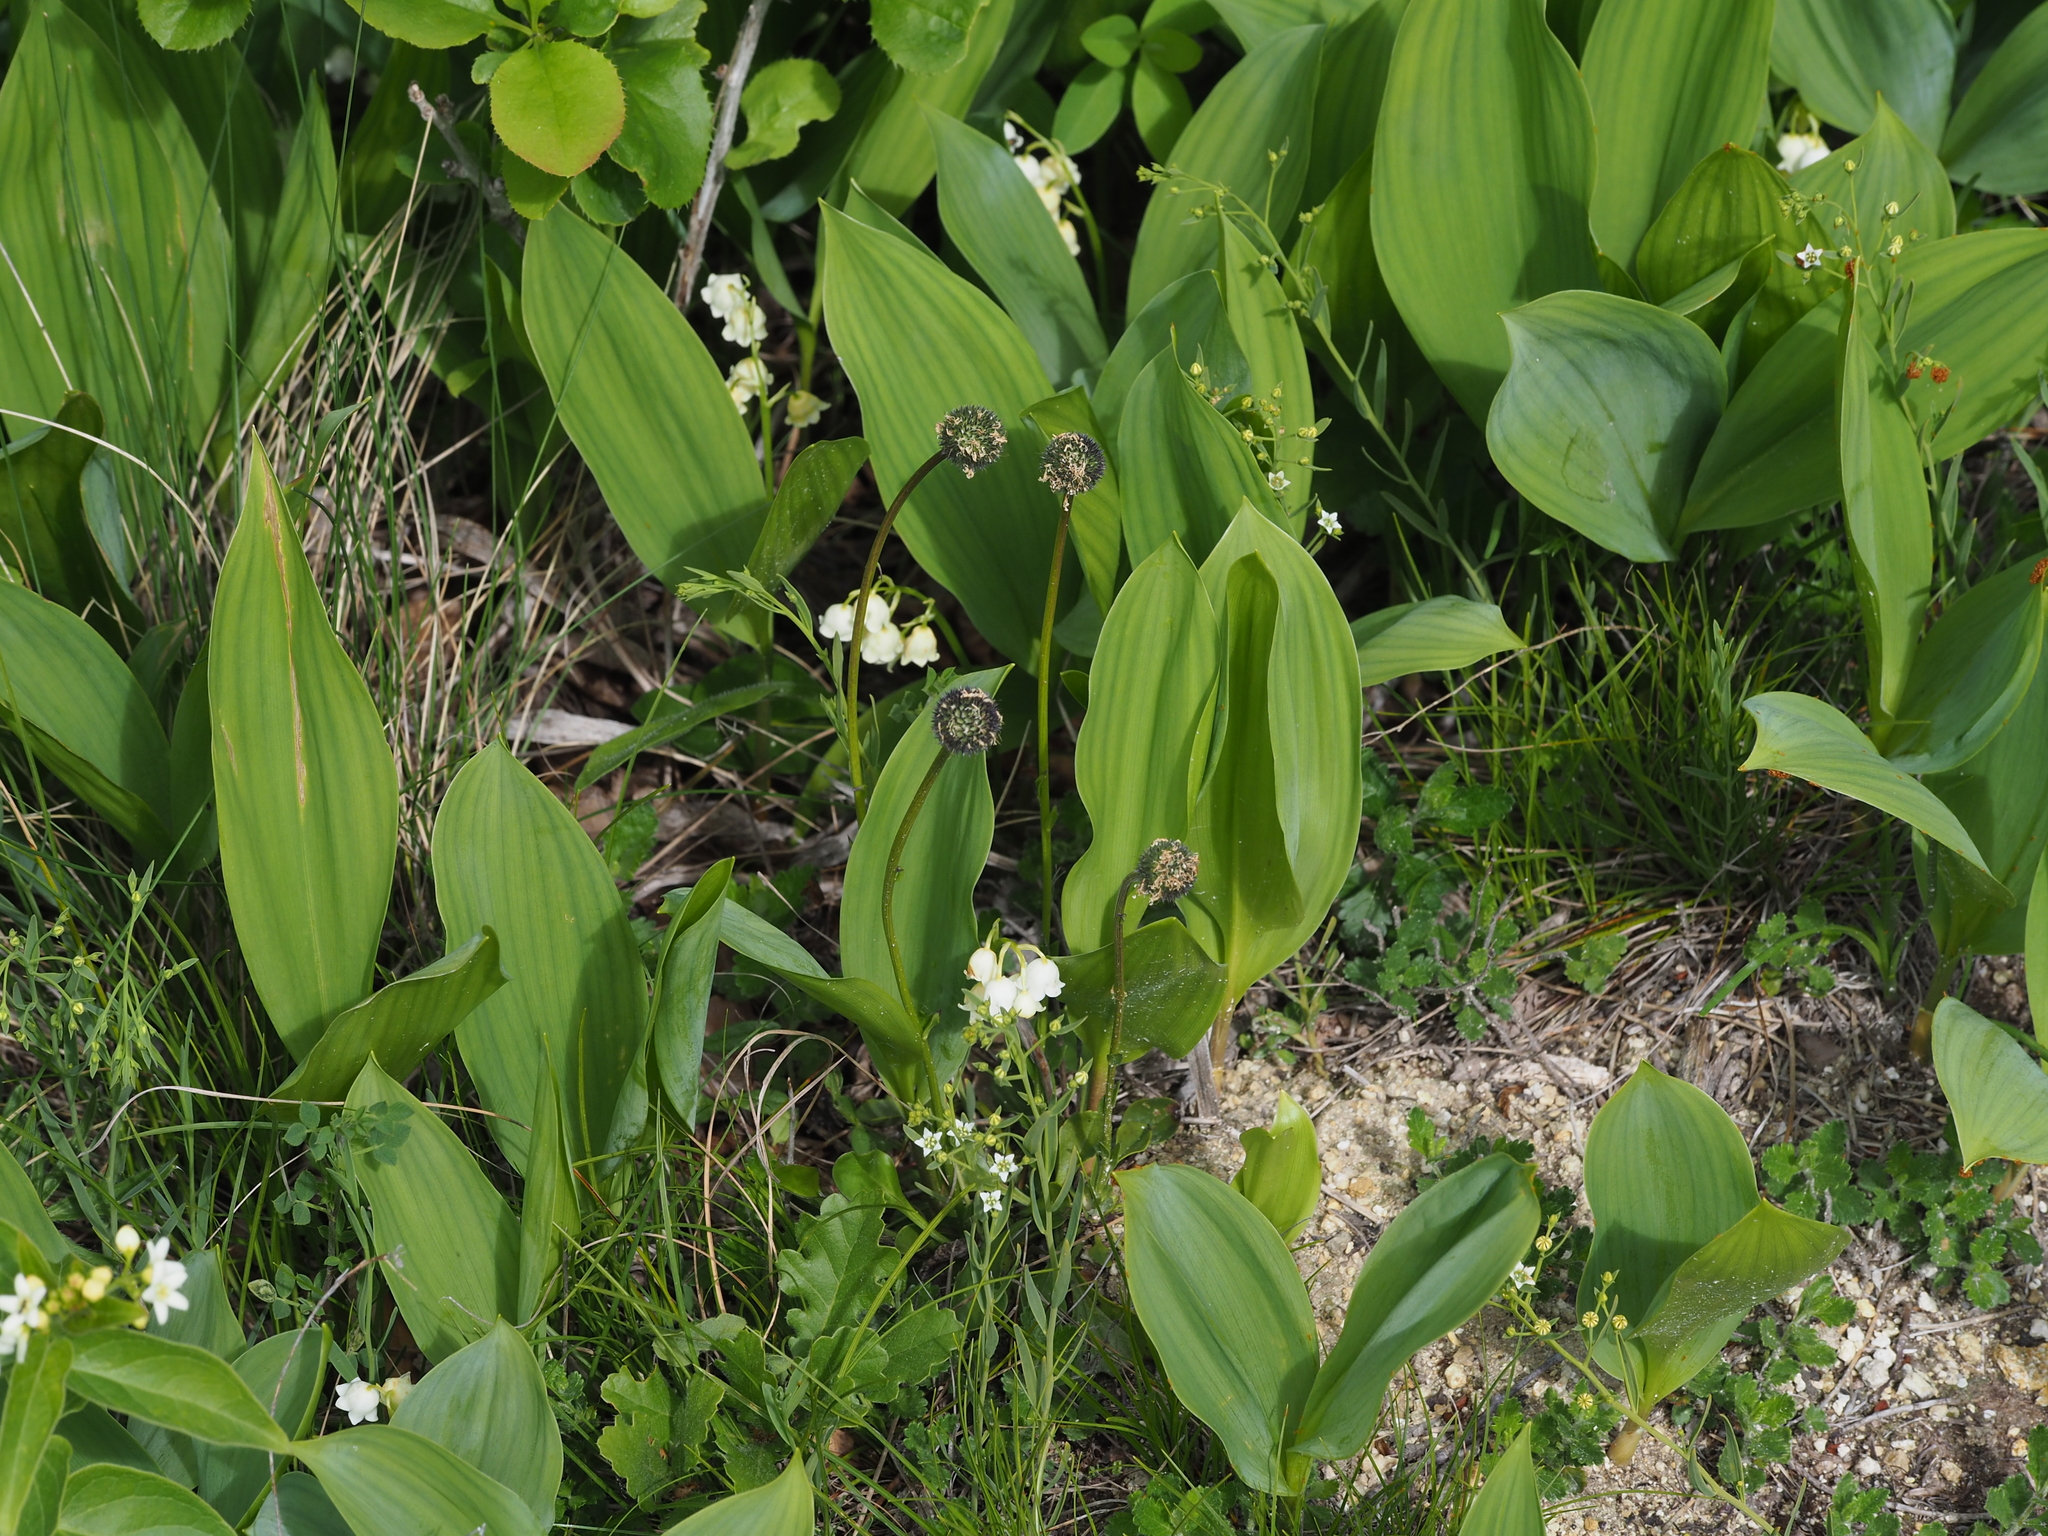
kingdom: Plantae
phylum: Tracheophyta
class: Liliopsida
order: Asparagales
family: Asparagaceae
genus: Convallaria
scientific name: Convallaria majalis
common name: Lily-of-the-valley
